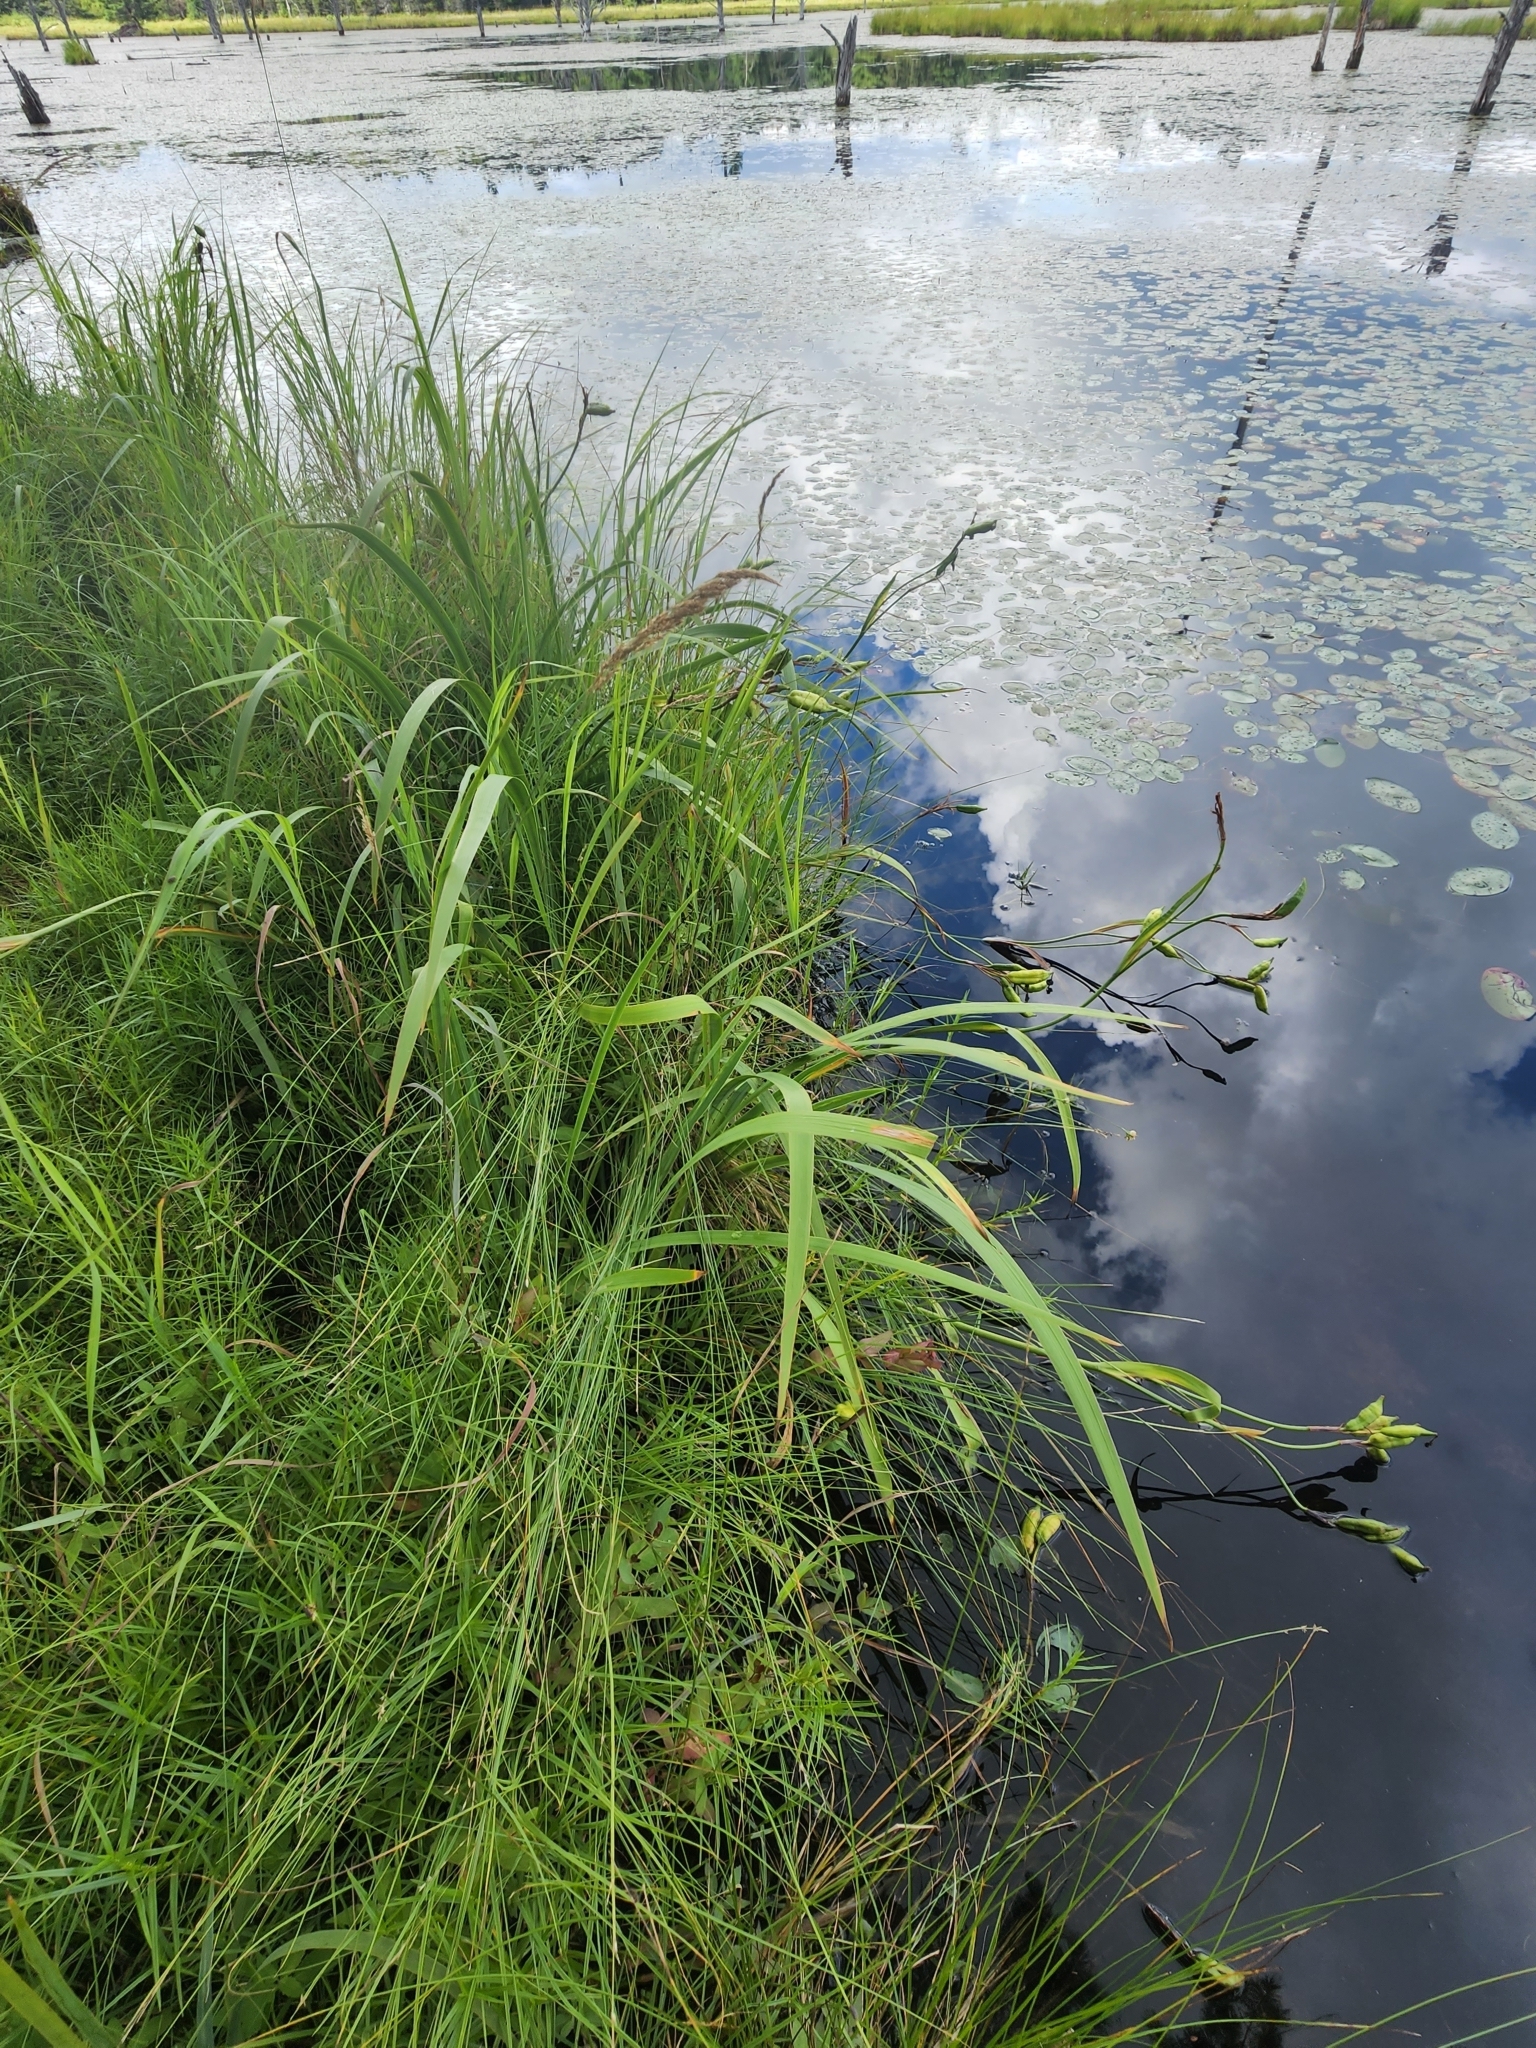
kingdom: Plantae
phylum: Tracheophyta
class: Liliopsida
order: Asparagales
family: Iridaceae
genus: Iris
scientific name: Iris versicolor
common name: Purple iris
